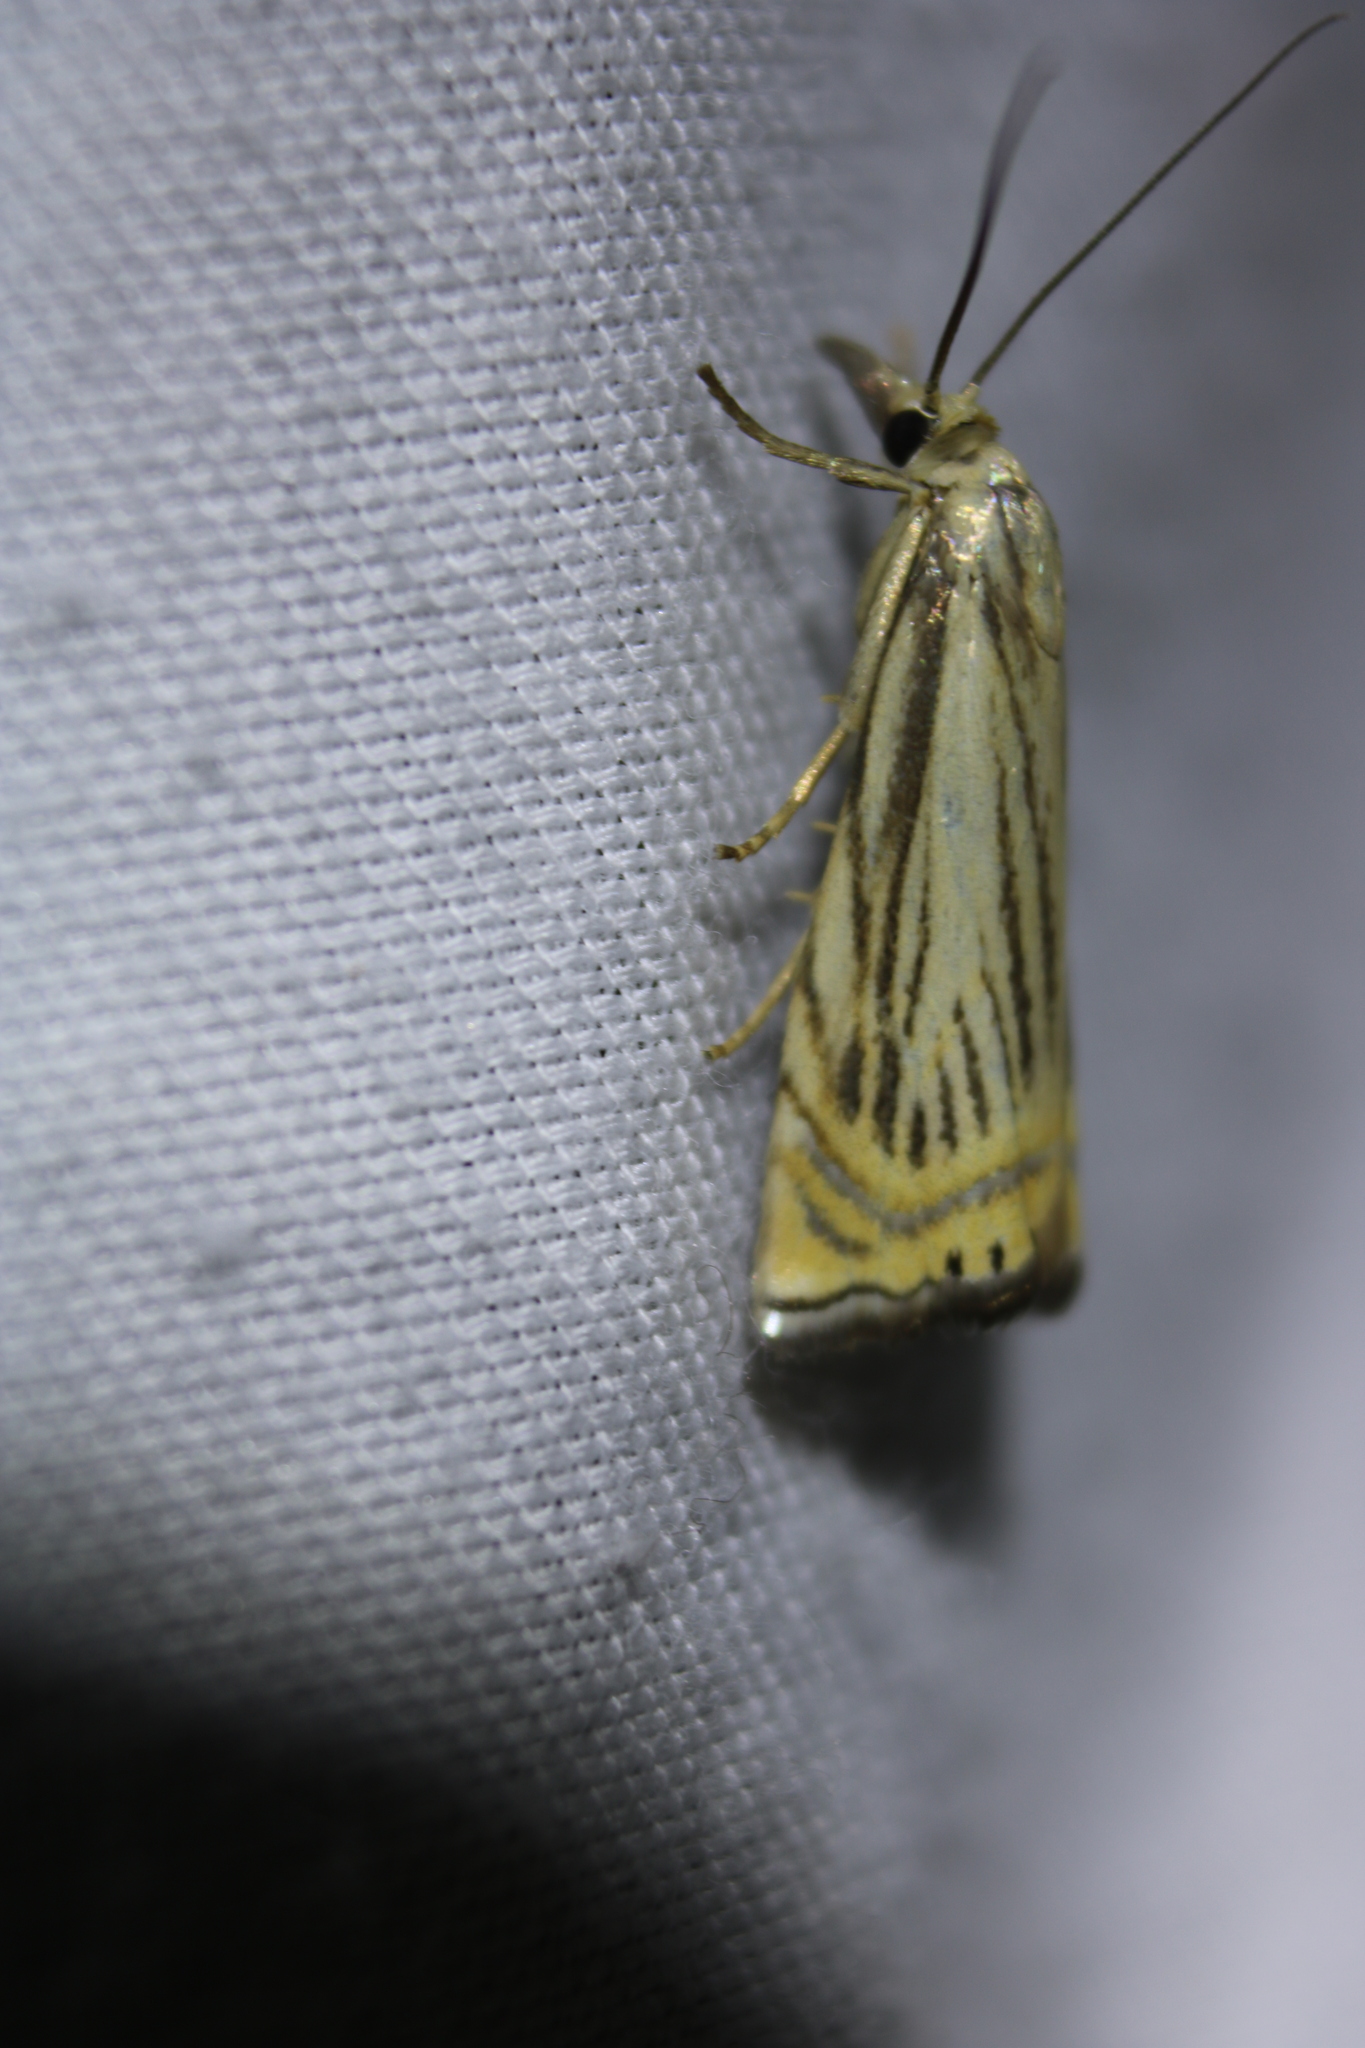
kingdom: Animalia
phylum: Arthropoda
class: Insecta
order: Lepidoptera
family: Crambidae
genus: Chrysoteuchia
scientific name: Chrysoteuchia topiarius
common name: Topiary grass-veneer
